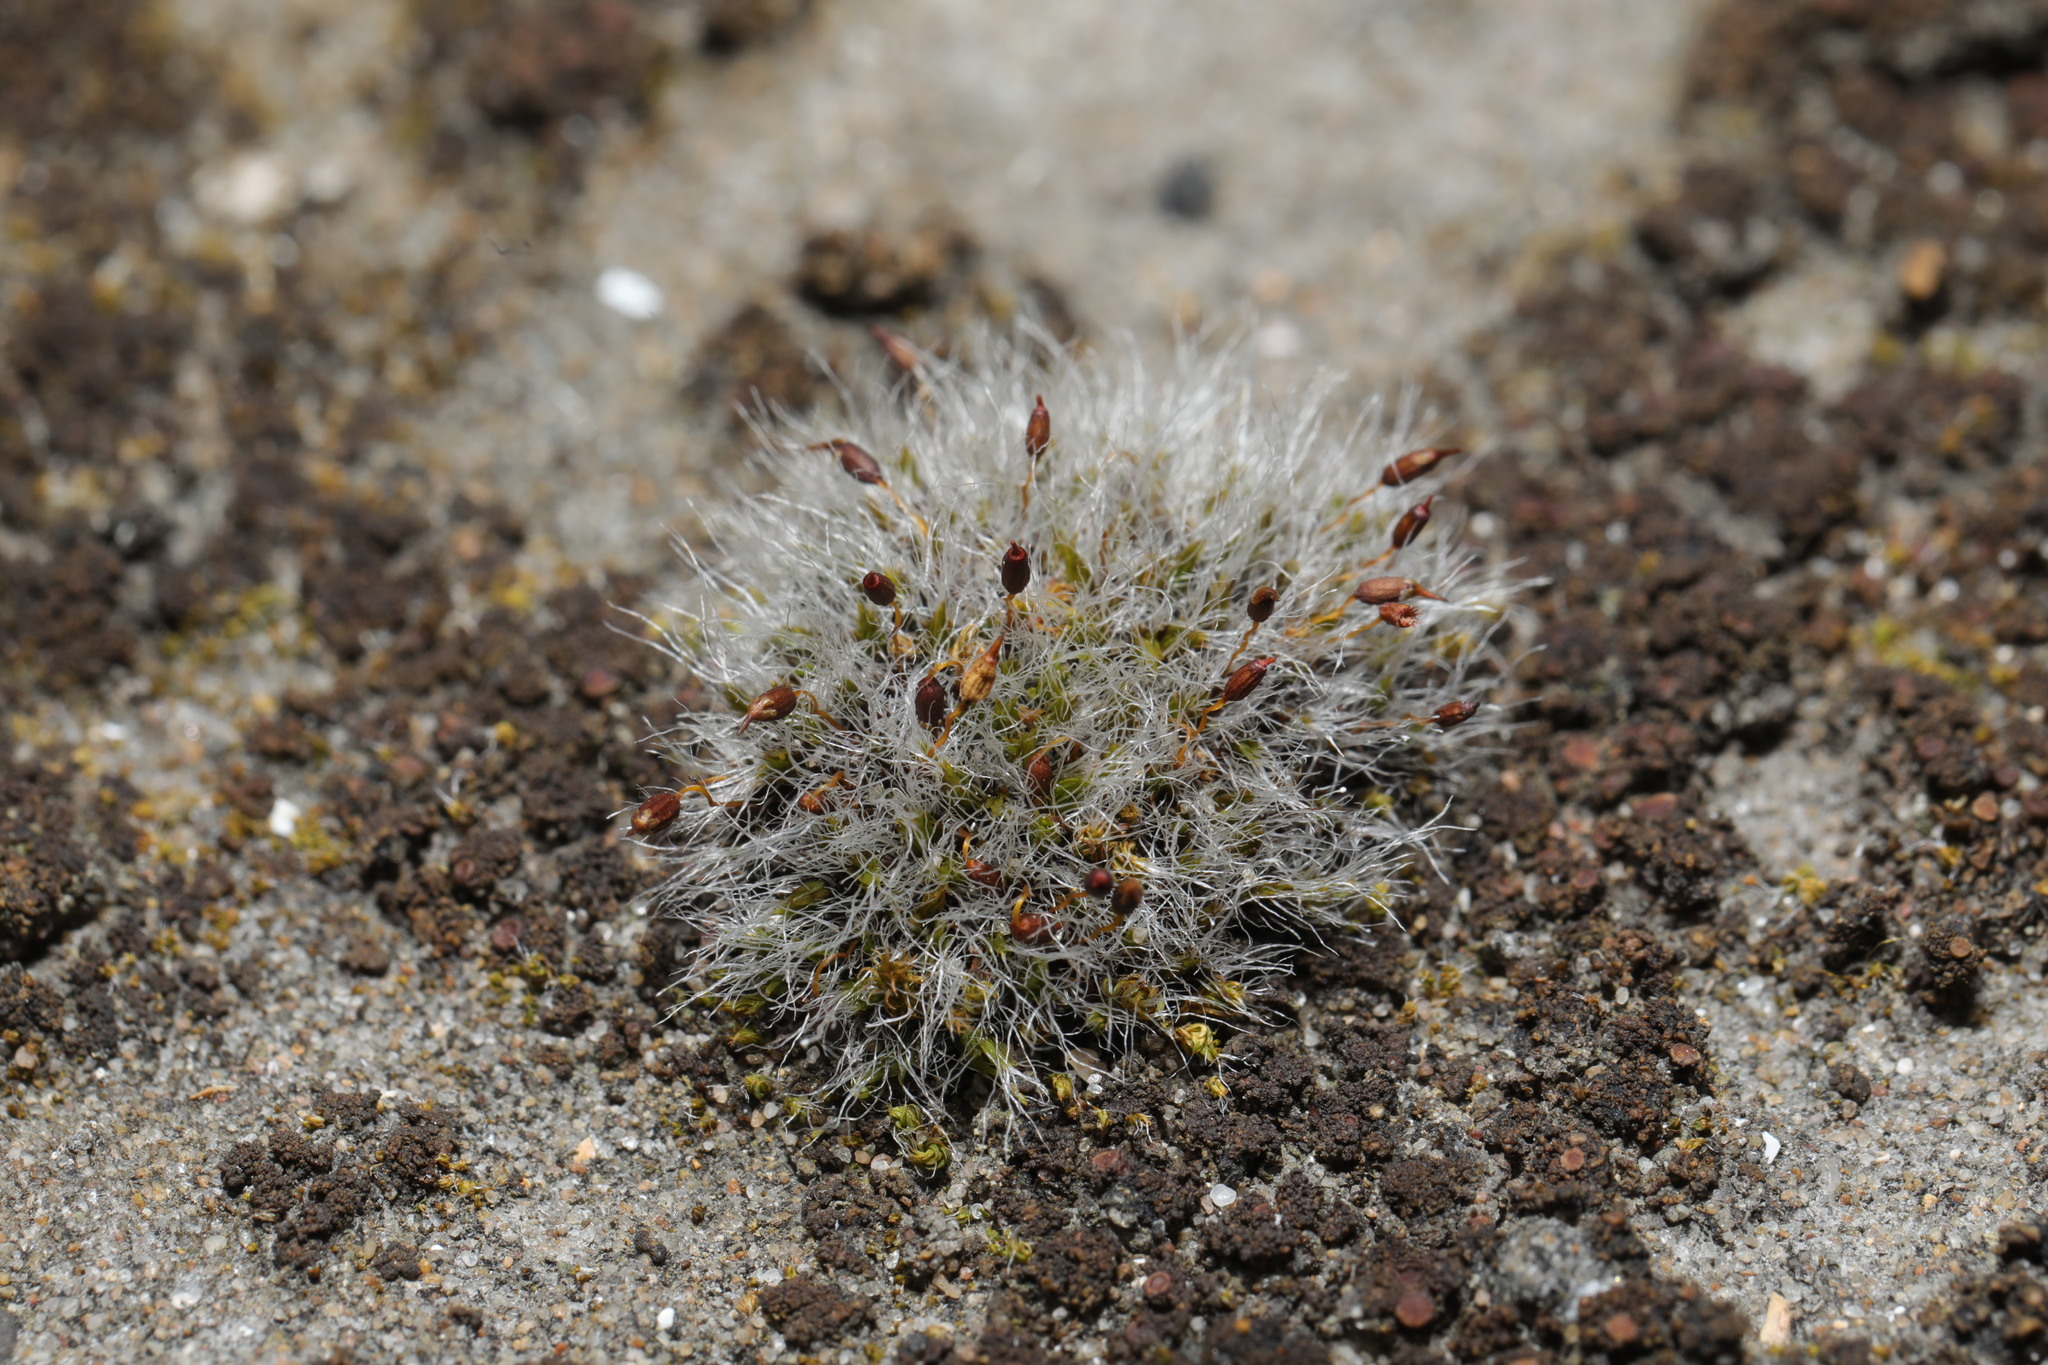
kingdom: Plantae
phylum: Bryophyta
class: Bryopsida
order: Grimmiales
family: Grimmiaceae
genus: Grimmia
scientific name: Grimmia pulvinata
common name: Grey-cushioned grimmia
